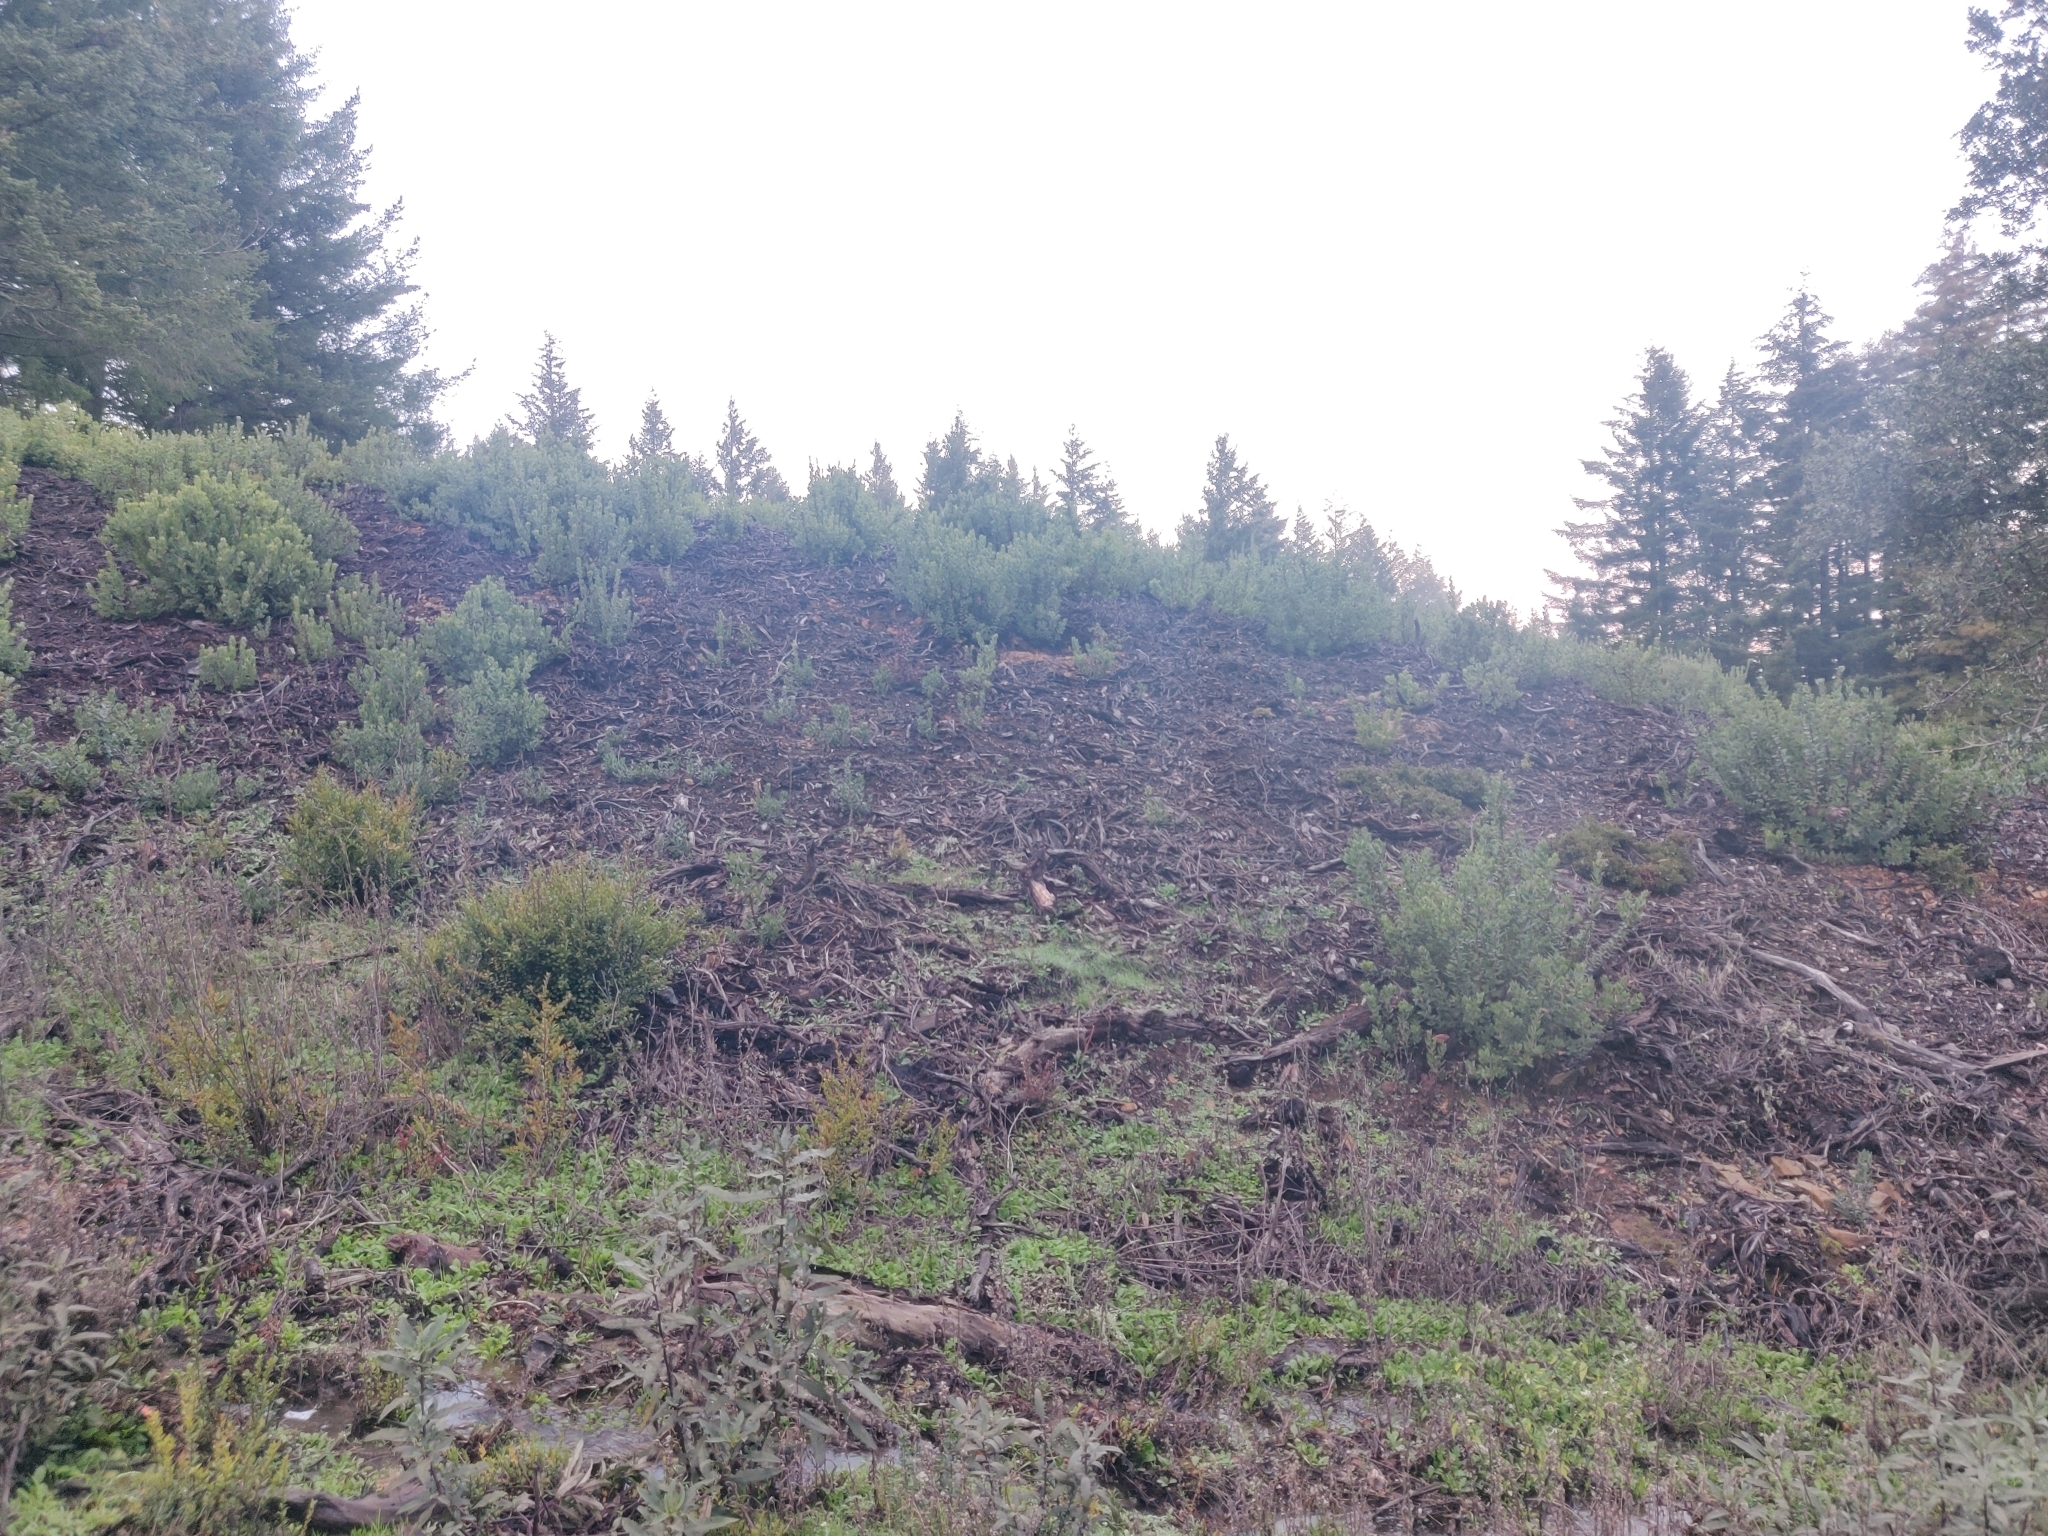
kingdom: Plantae
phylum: Tracheophyta
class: Magnoliopsida
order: Ericales
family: Ericaceae
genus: Arctostaphylos
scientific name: Arctostaphylos crustacea
